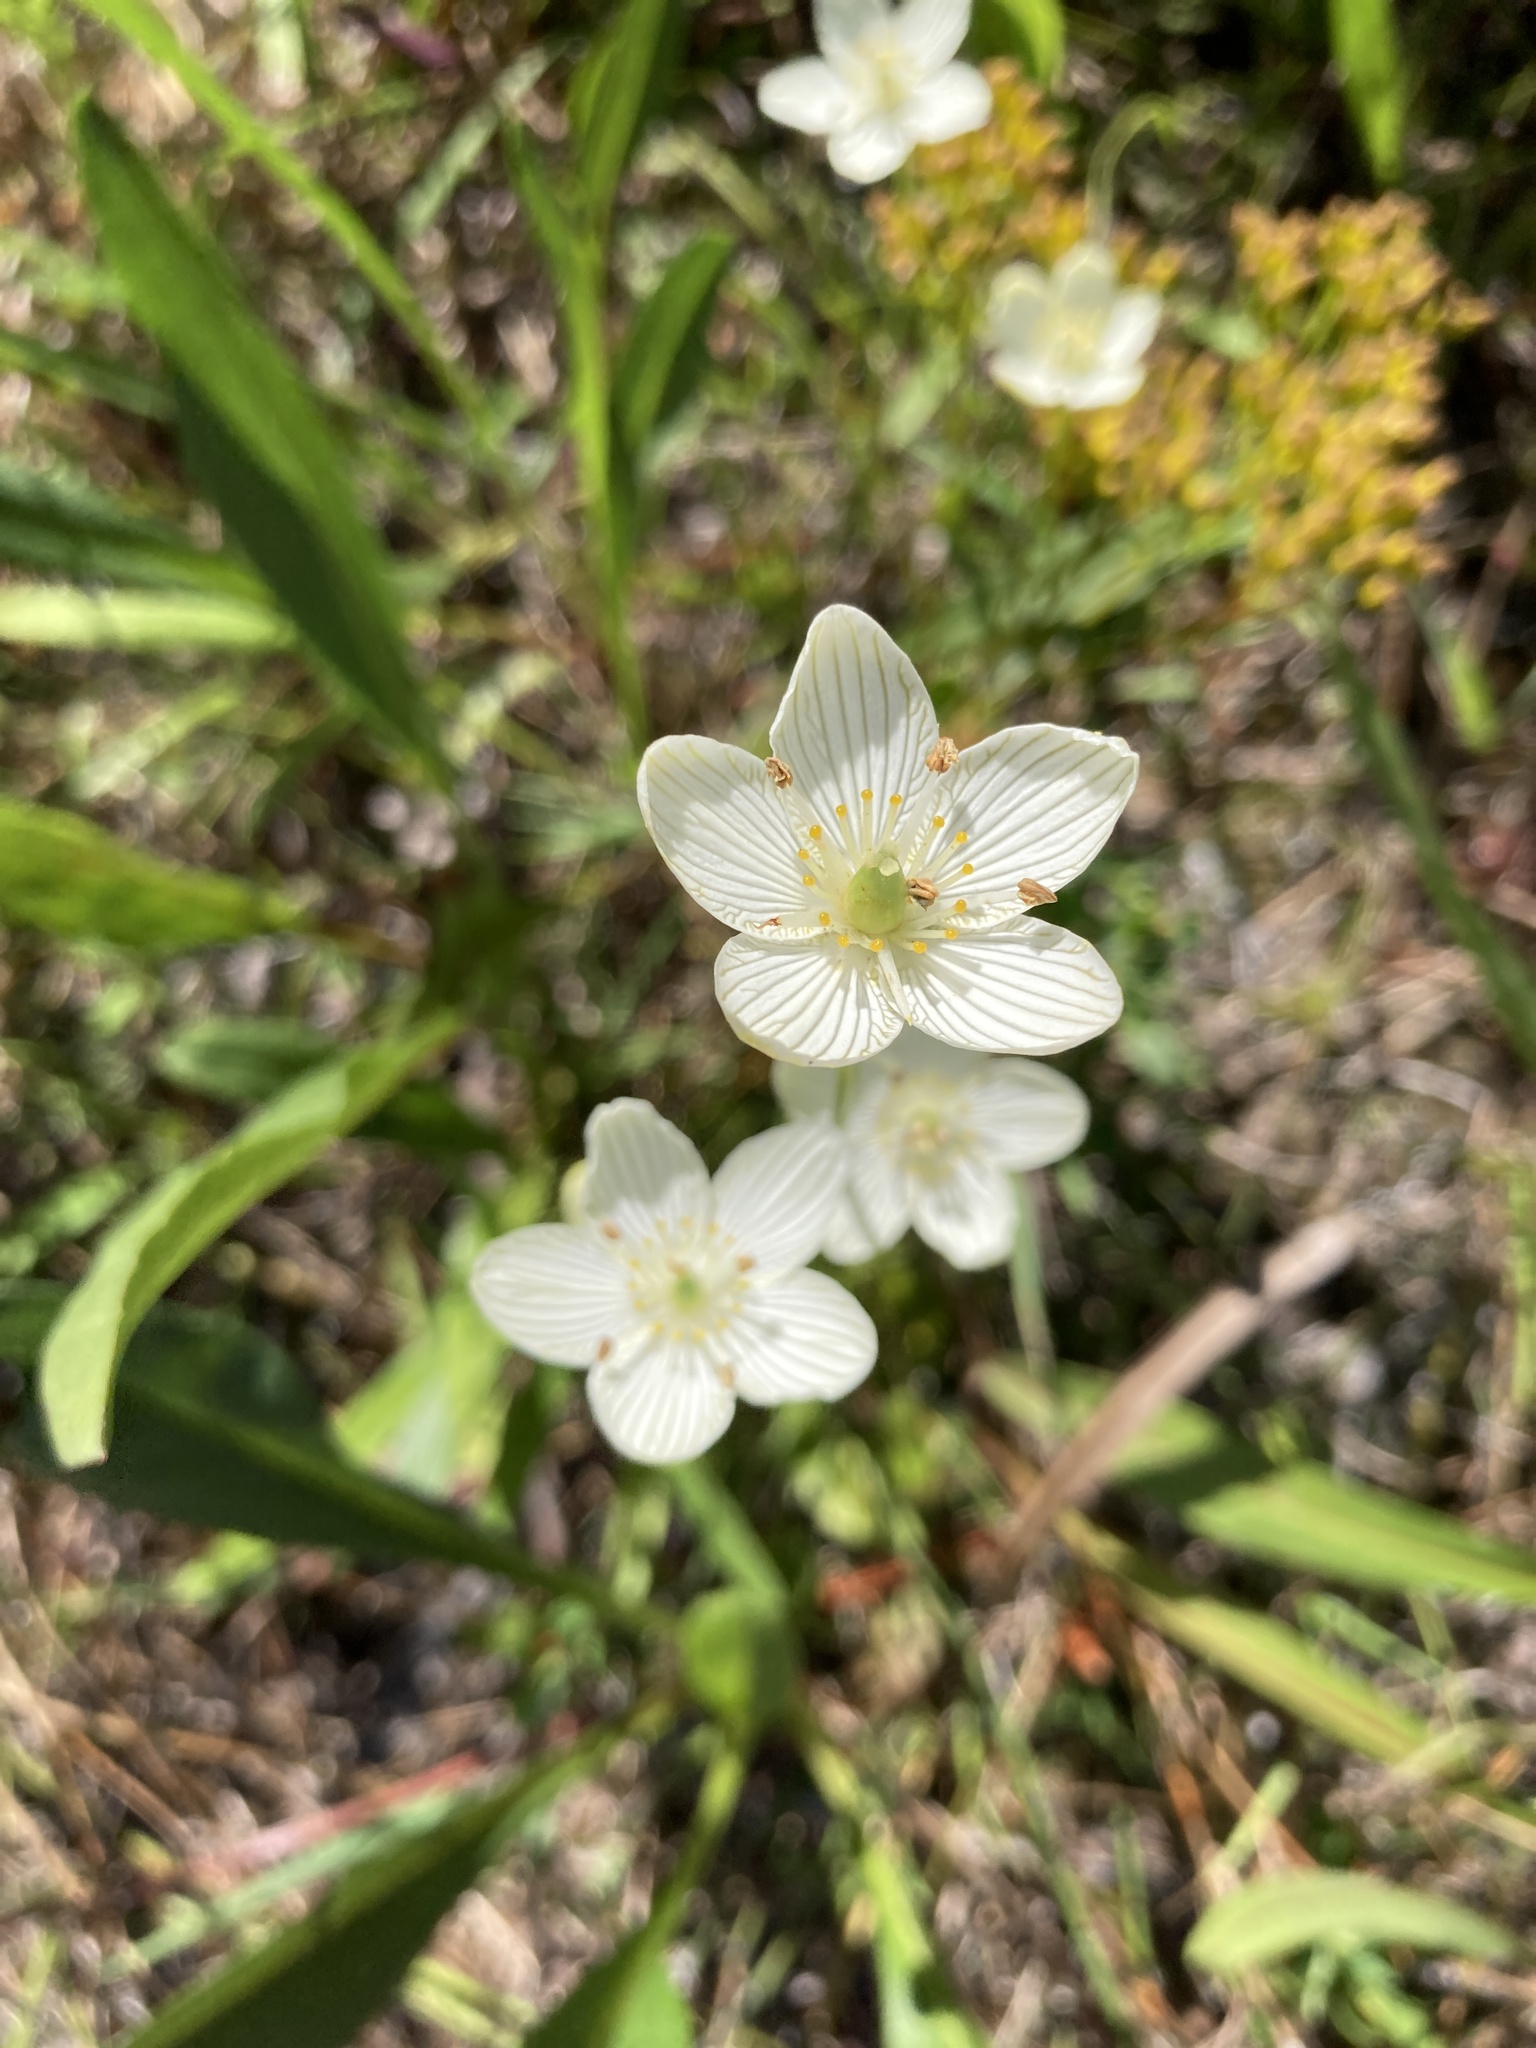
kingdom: Plantae
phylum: Tracheophyta
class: Magnoliopsida
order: Celastrales
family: Parnassiaceae
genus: Parnassia
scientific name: Parnassia glauca
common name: American grass-of-parnassus
